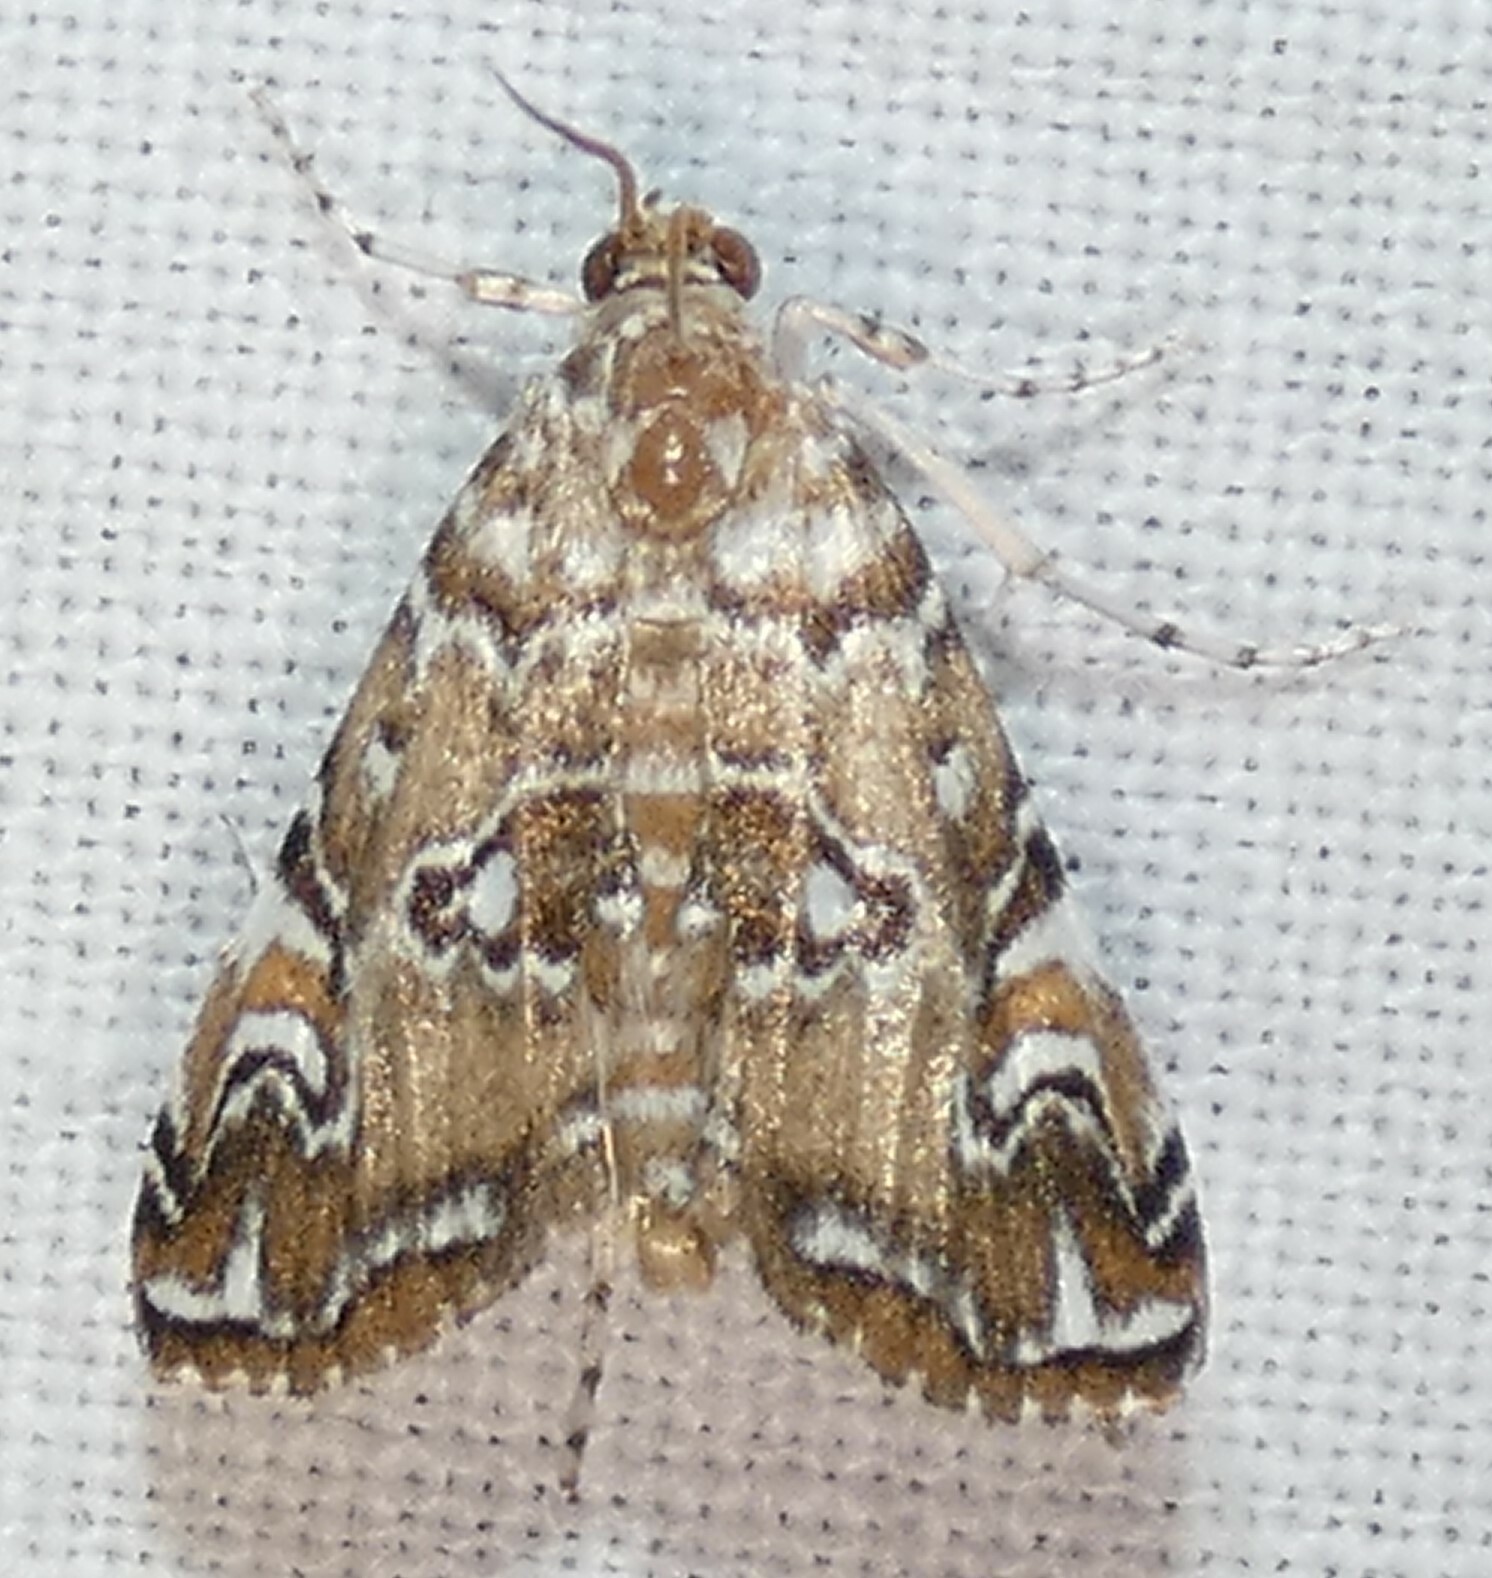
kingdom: Animalia
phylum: Arthropoda
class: Insecta
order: Lepidoptera
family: Crambidae
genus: Elophila
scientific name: Elophila gyralis
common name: Waterlily borer moth
